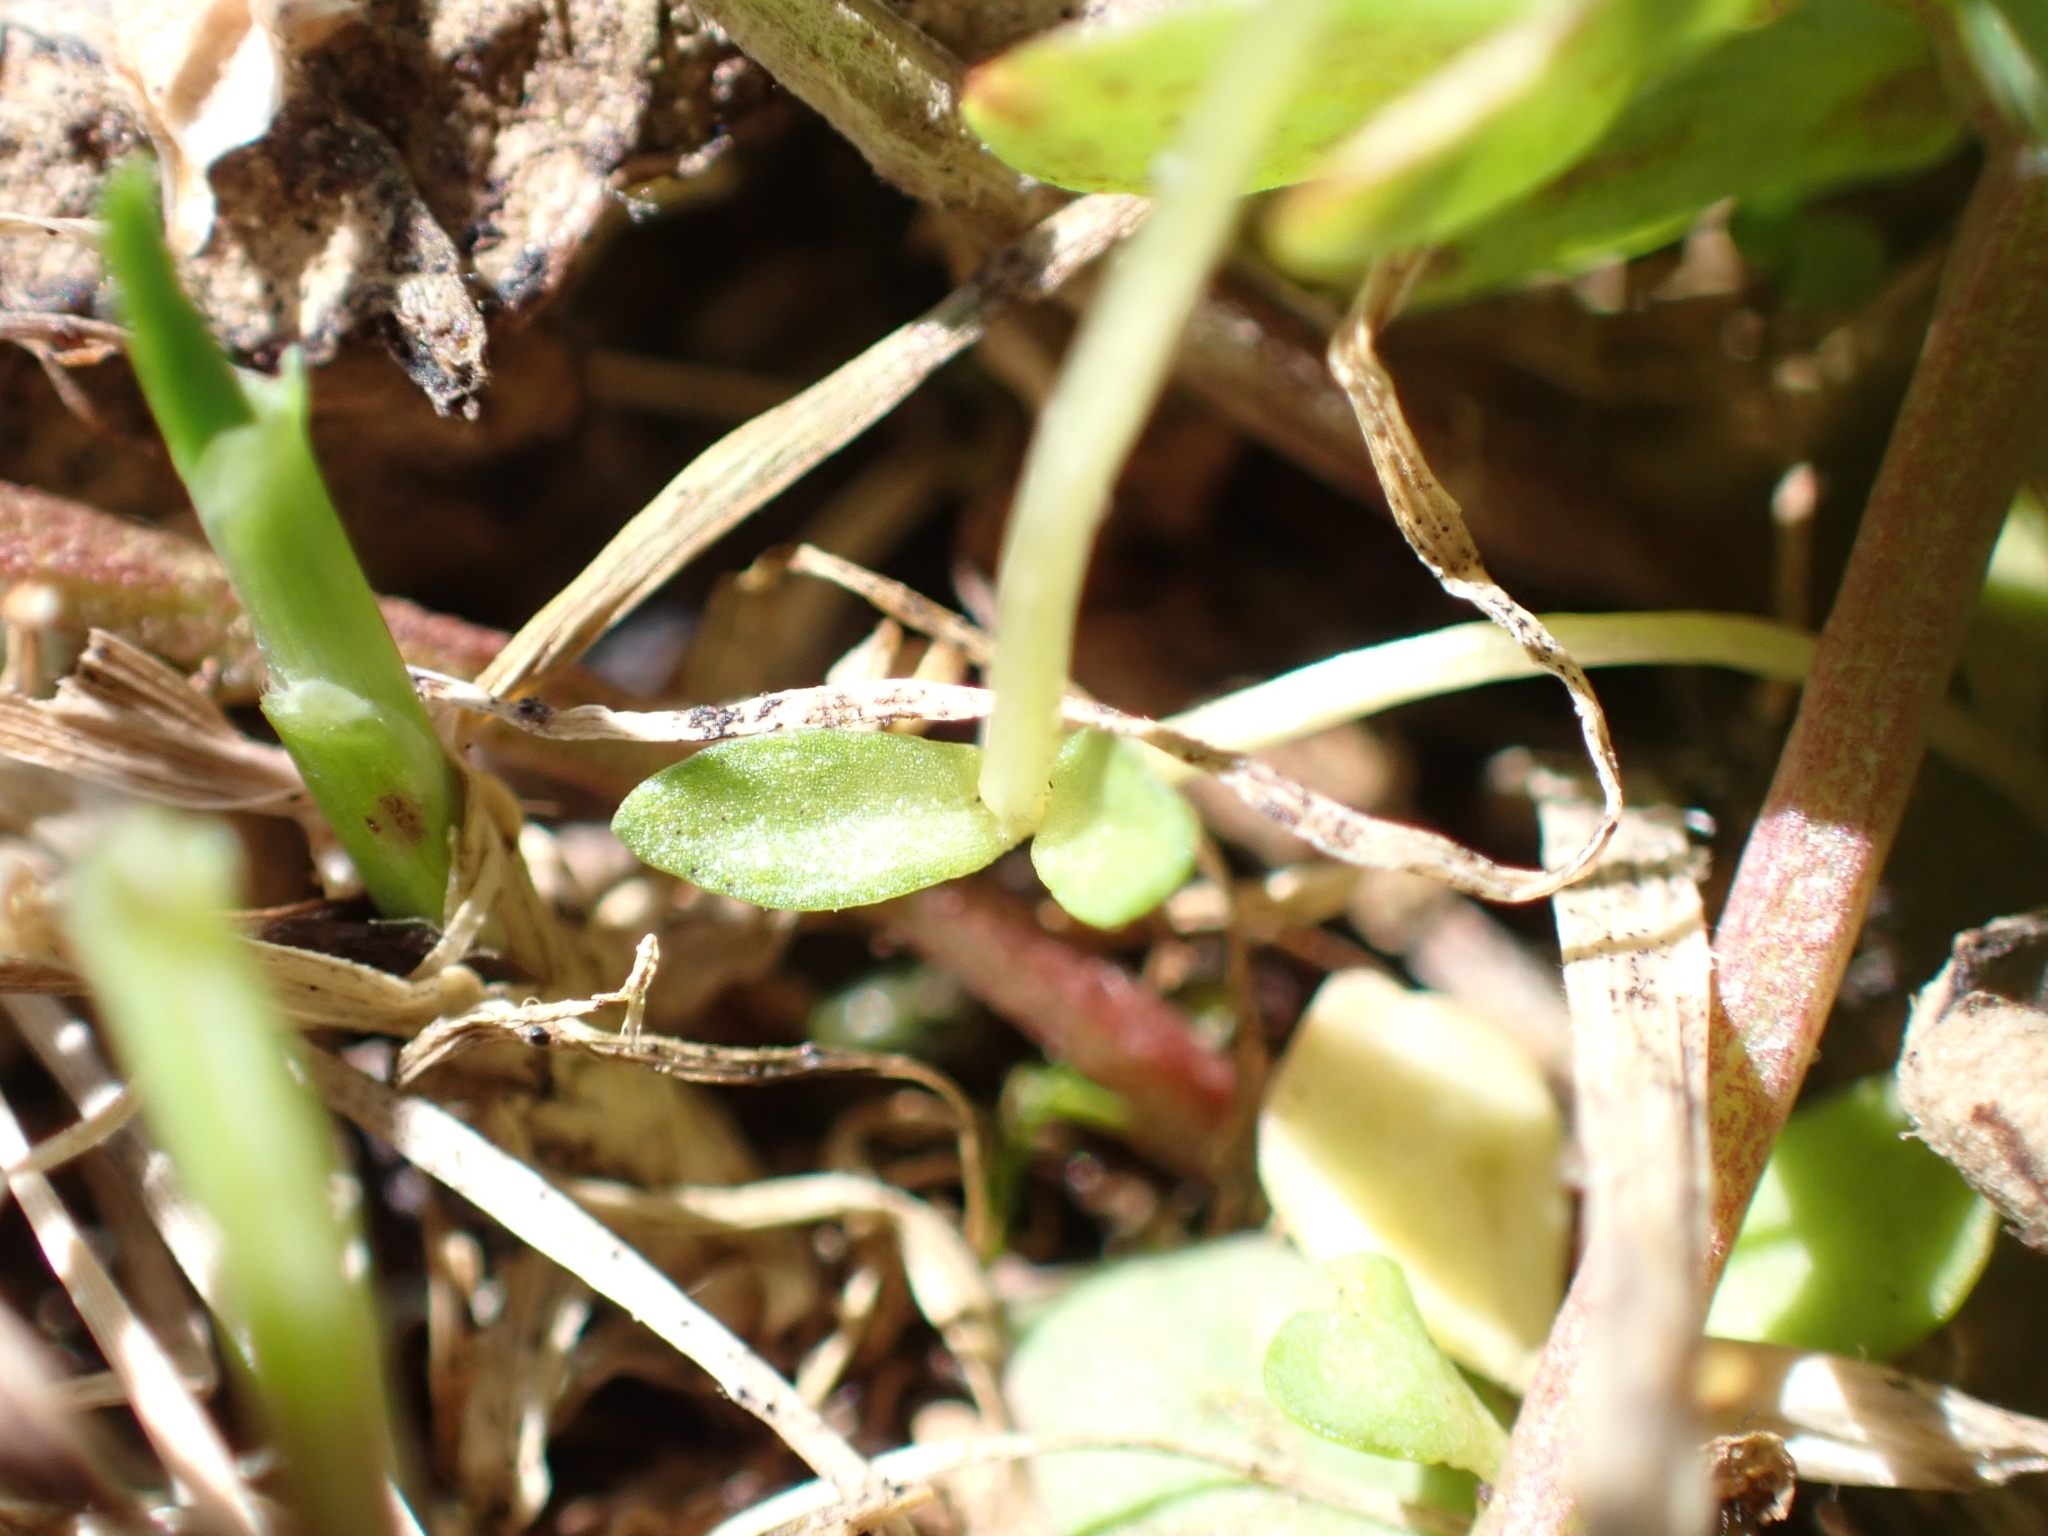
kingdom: Plantae
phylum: Tracheophyta
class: Magnoliopsida
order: Gentianales
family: Gentianaceae
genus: Gentiana
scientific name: Gentiana nivalis
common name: Alpine gentian
